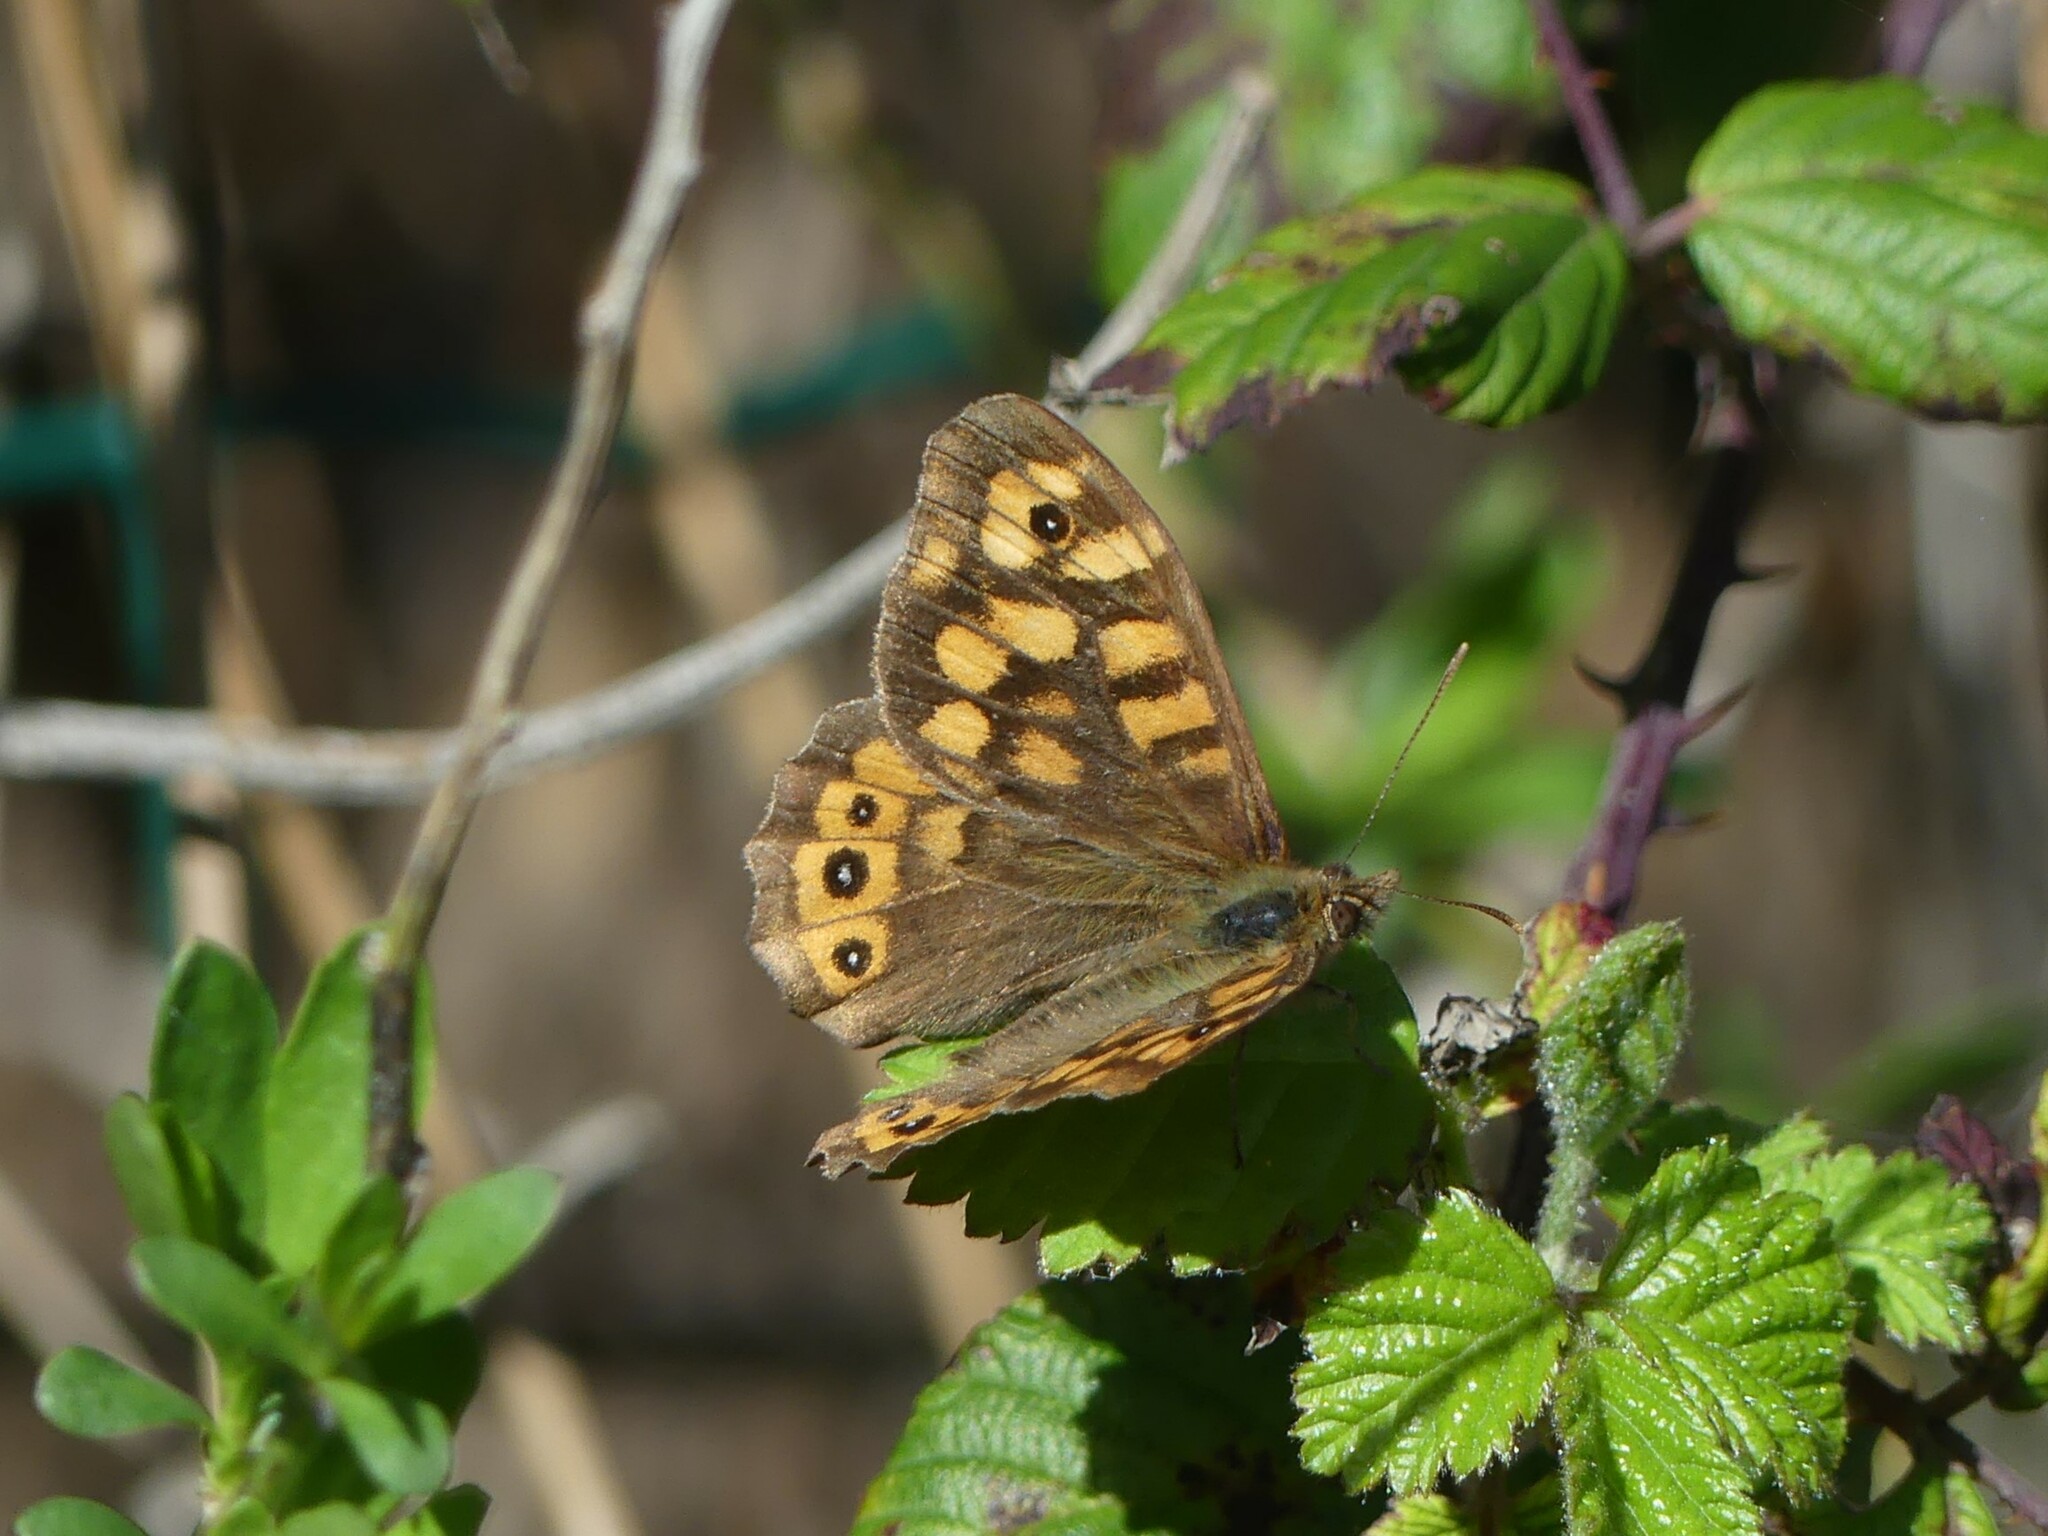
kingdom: Animalia
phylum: Arthropoda
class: Insecta
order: Lepidoptera
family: Nymphalidae
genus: Pararge
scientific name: Pararge aegeria
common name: Speckled wood
